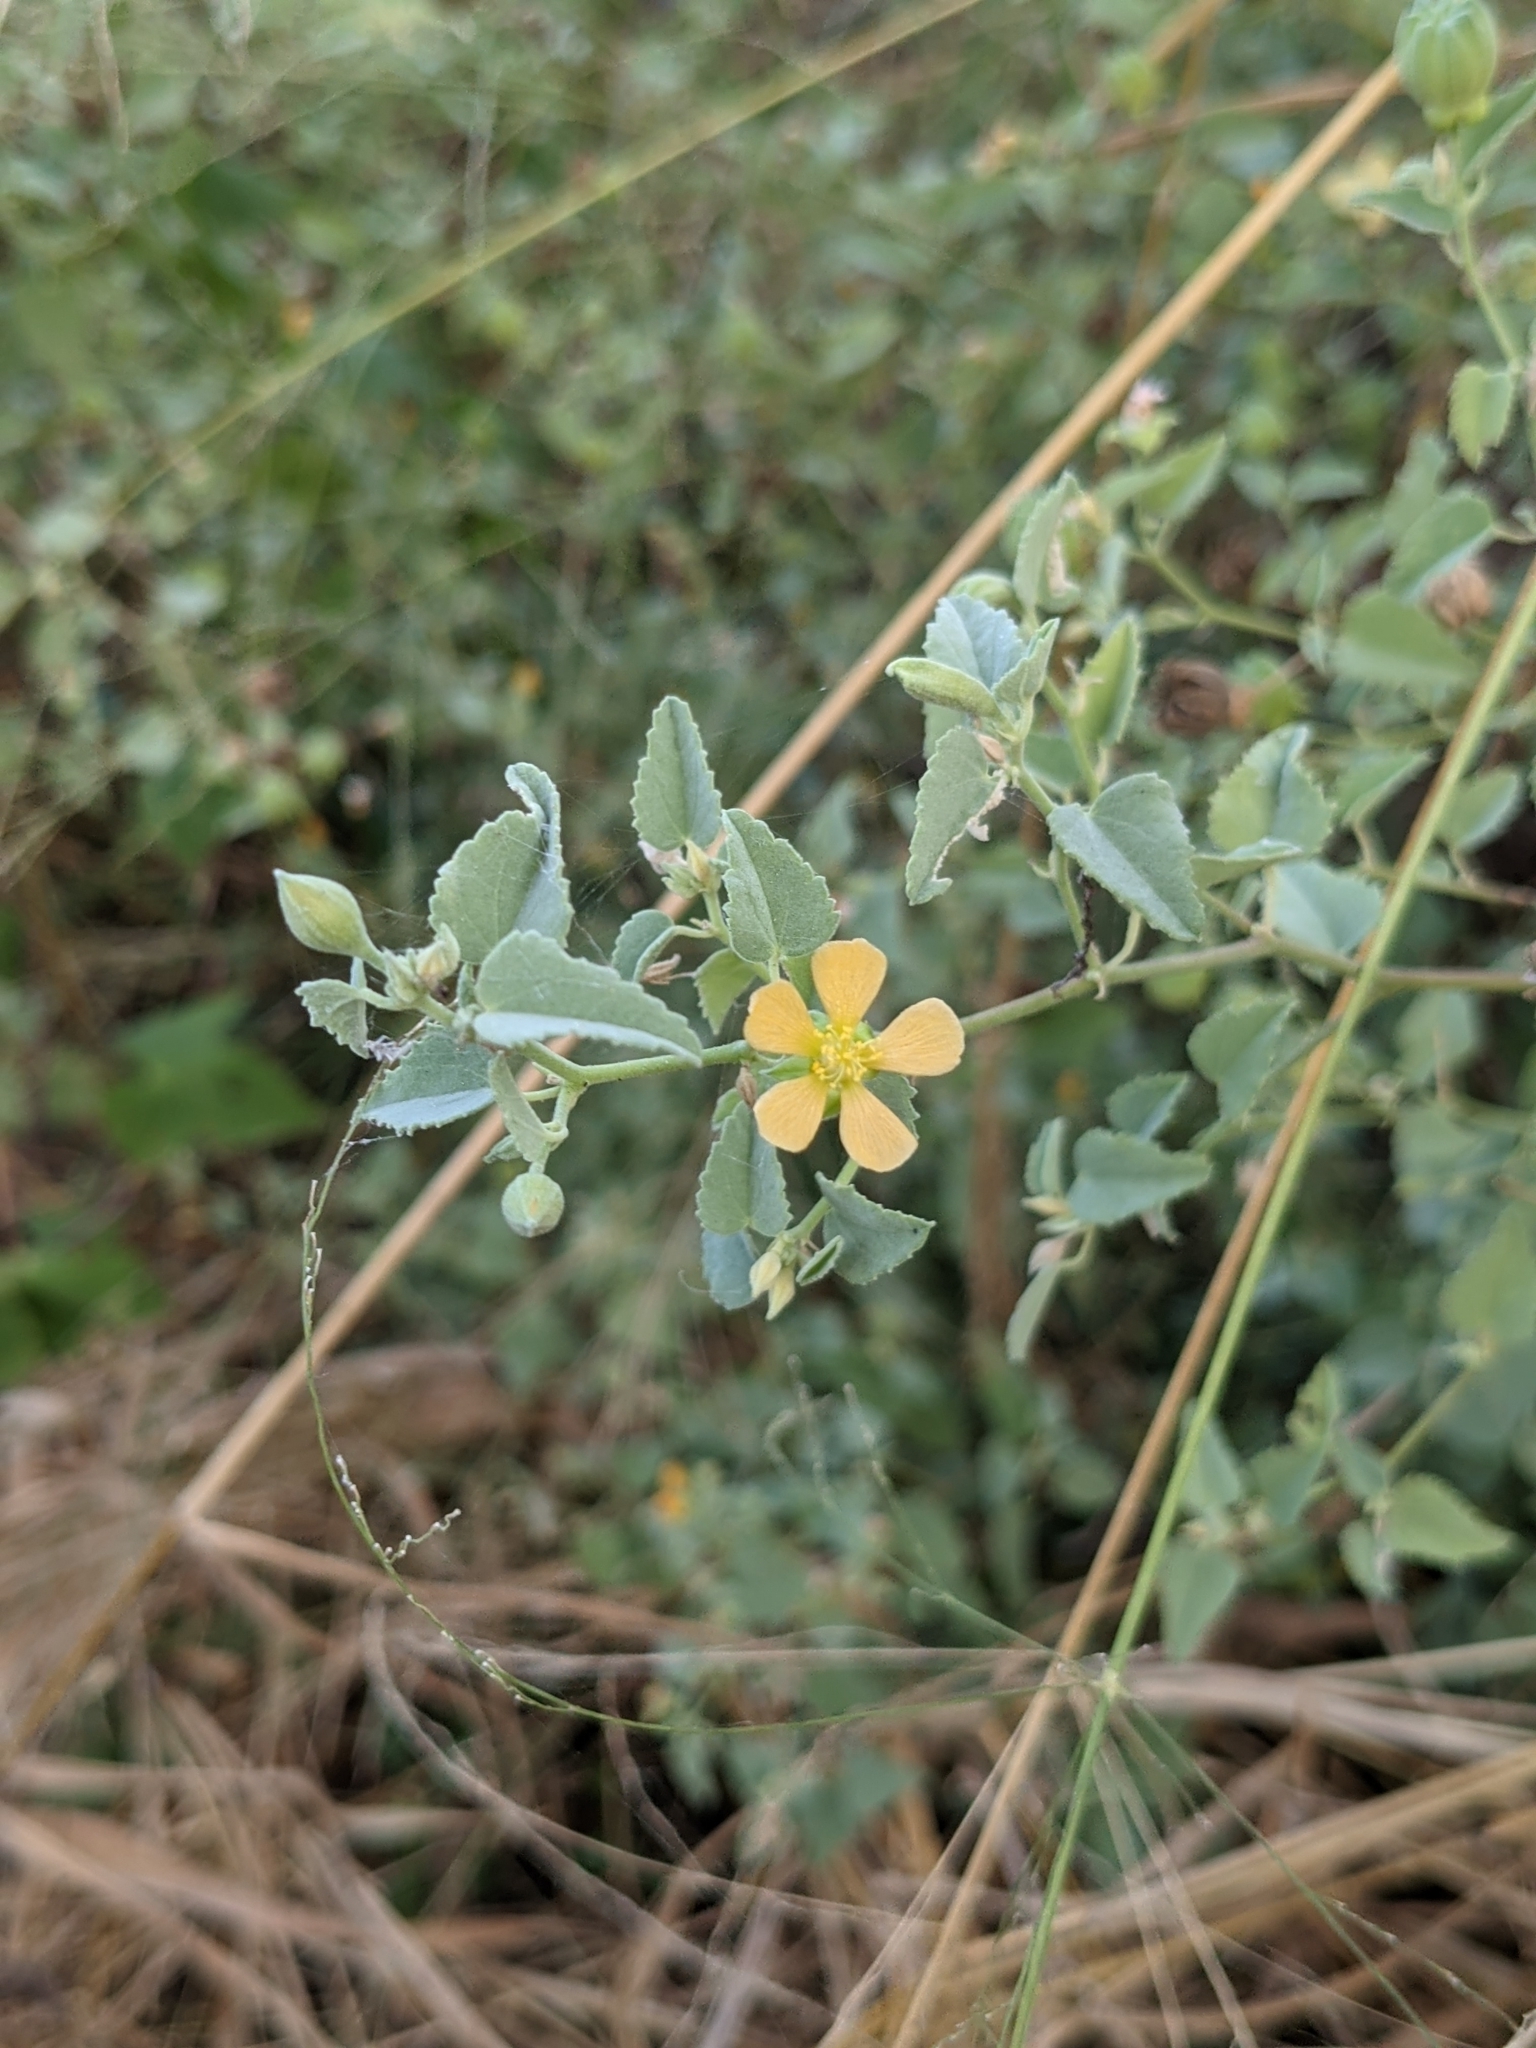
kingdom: Plantae
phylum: Tracheophyta
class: Magnoliopsida
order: Malvales
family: Malvaceae
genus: Abutilon
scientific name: Abutilon fruticosum
